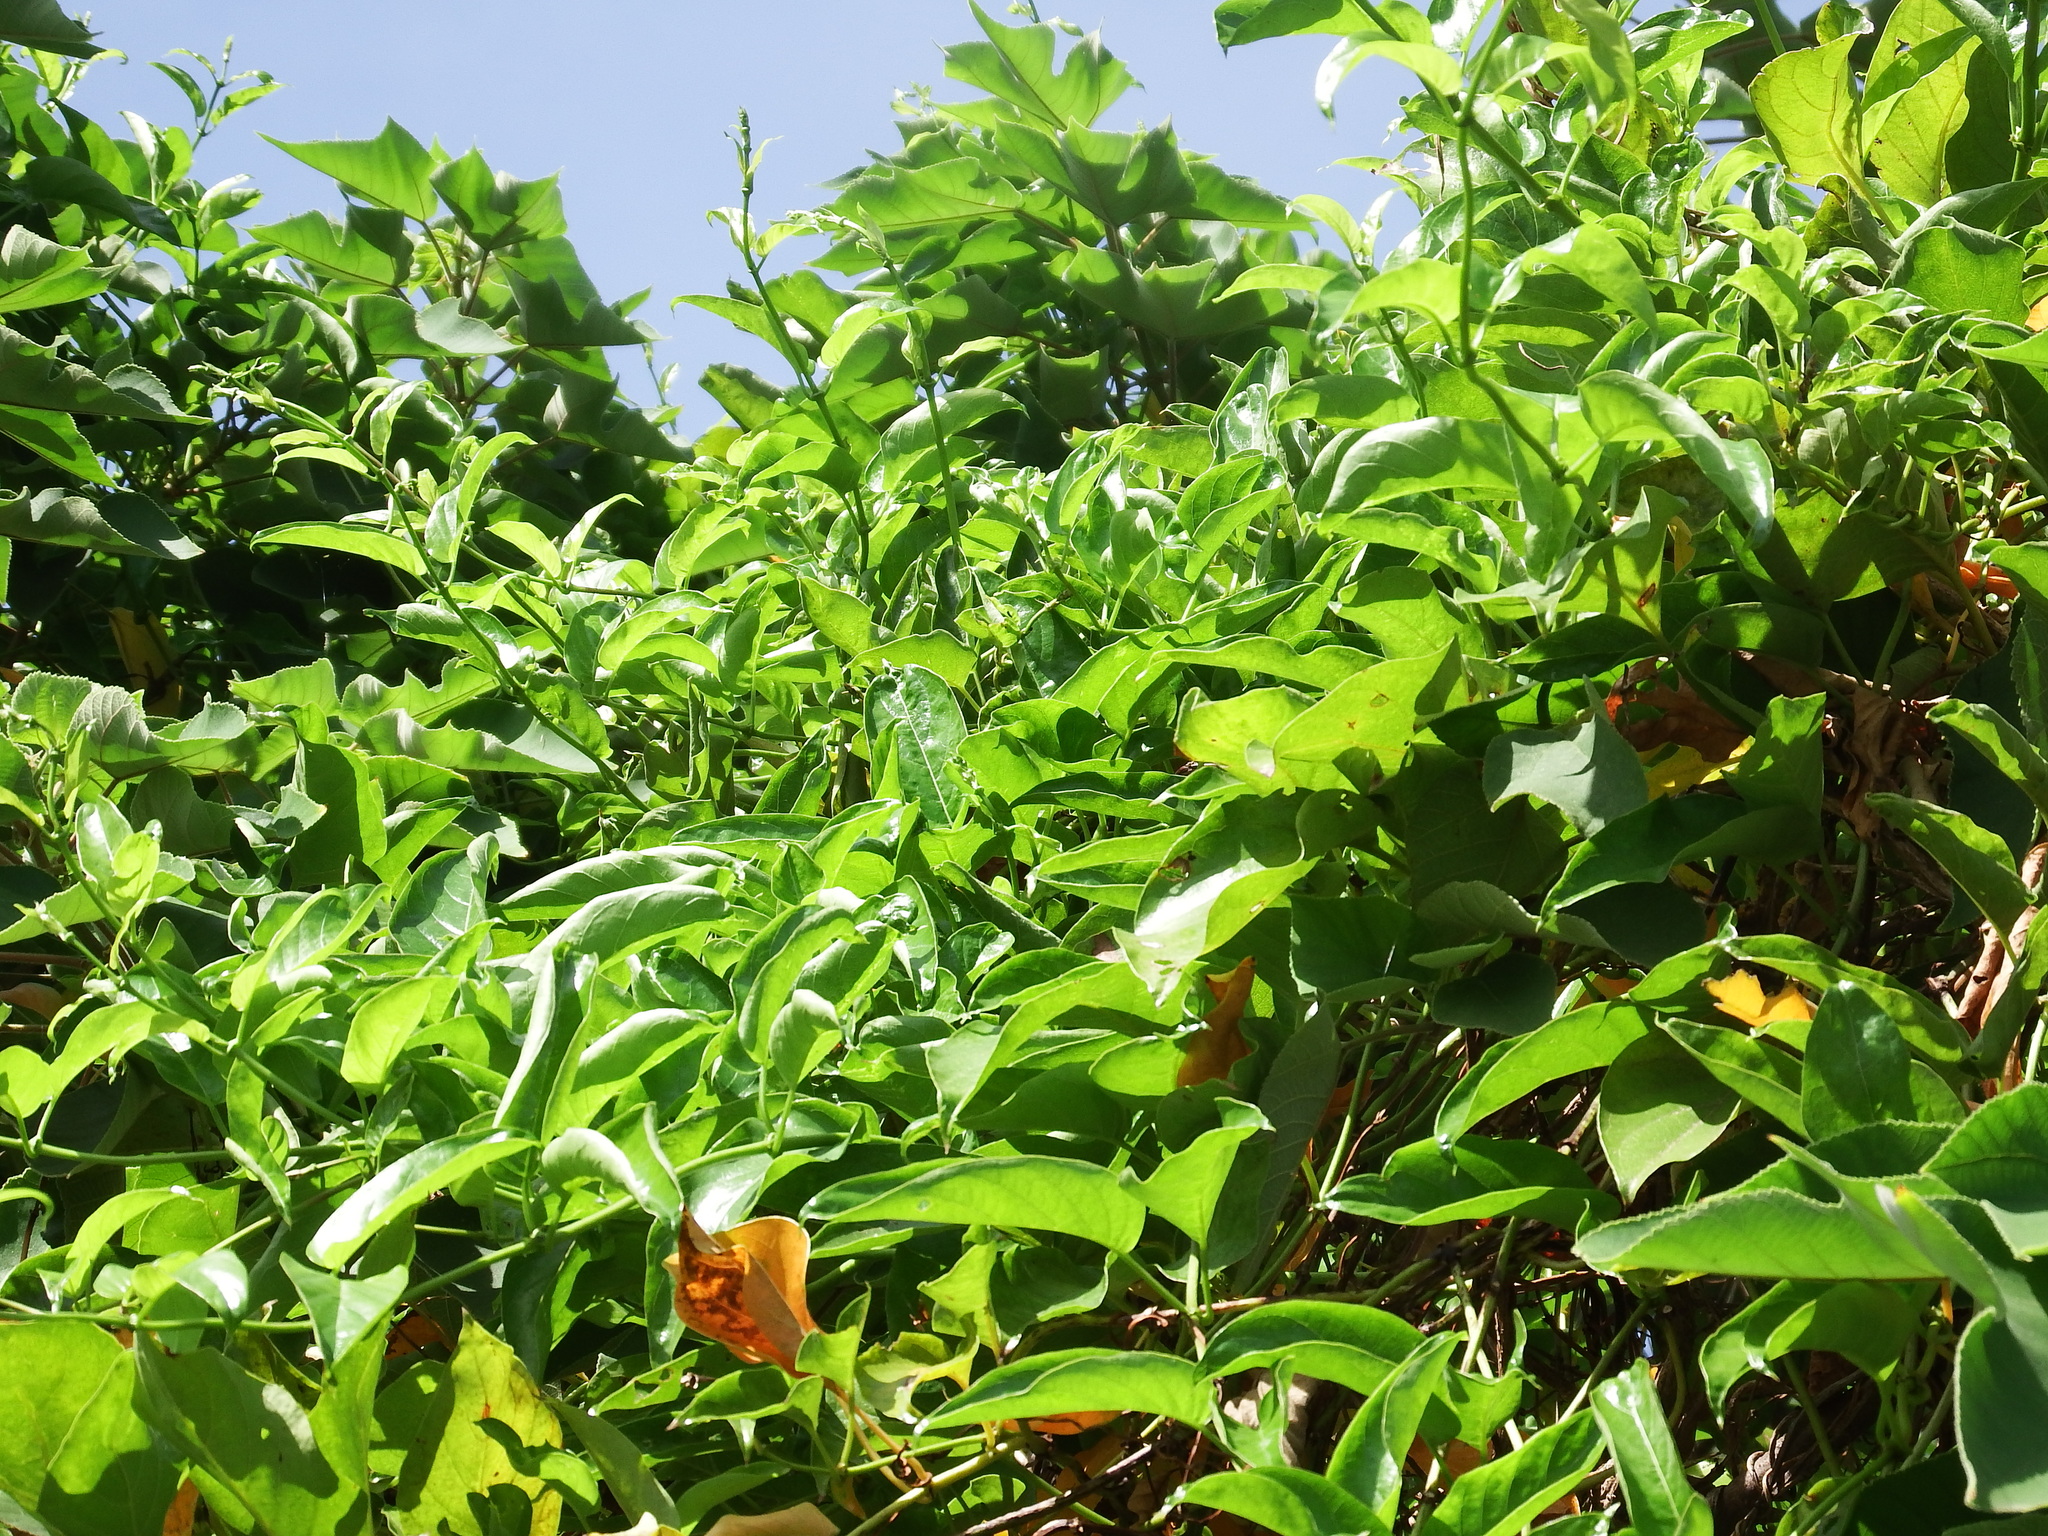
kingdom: Plantae
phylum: Tracheophyta
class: Magnoliopsida
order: Gentianales
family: Rubiaceae
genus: Paederia
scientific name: Paederia foetida
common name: Stinkvine
